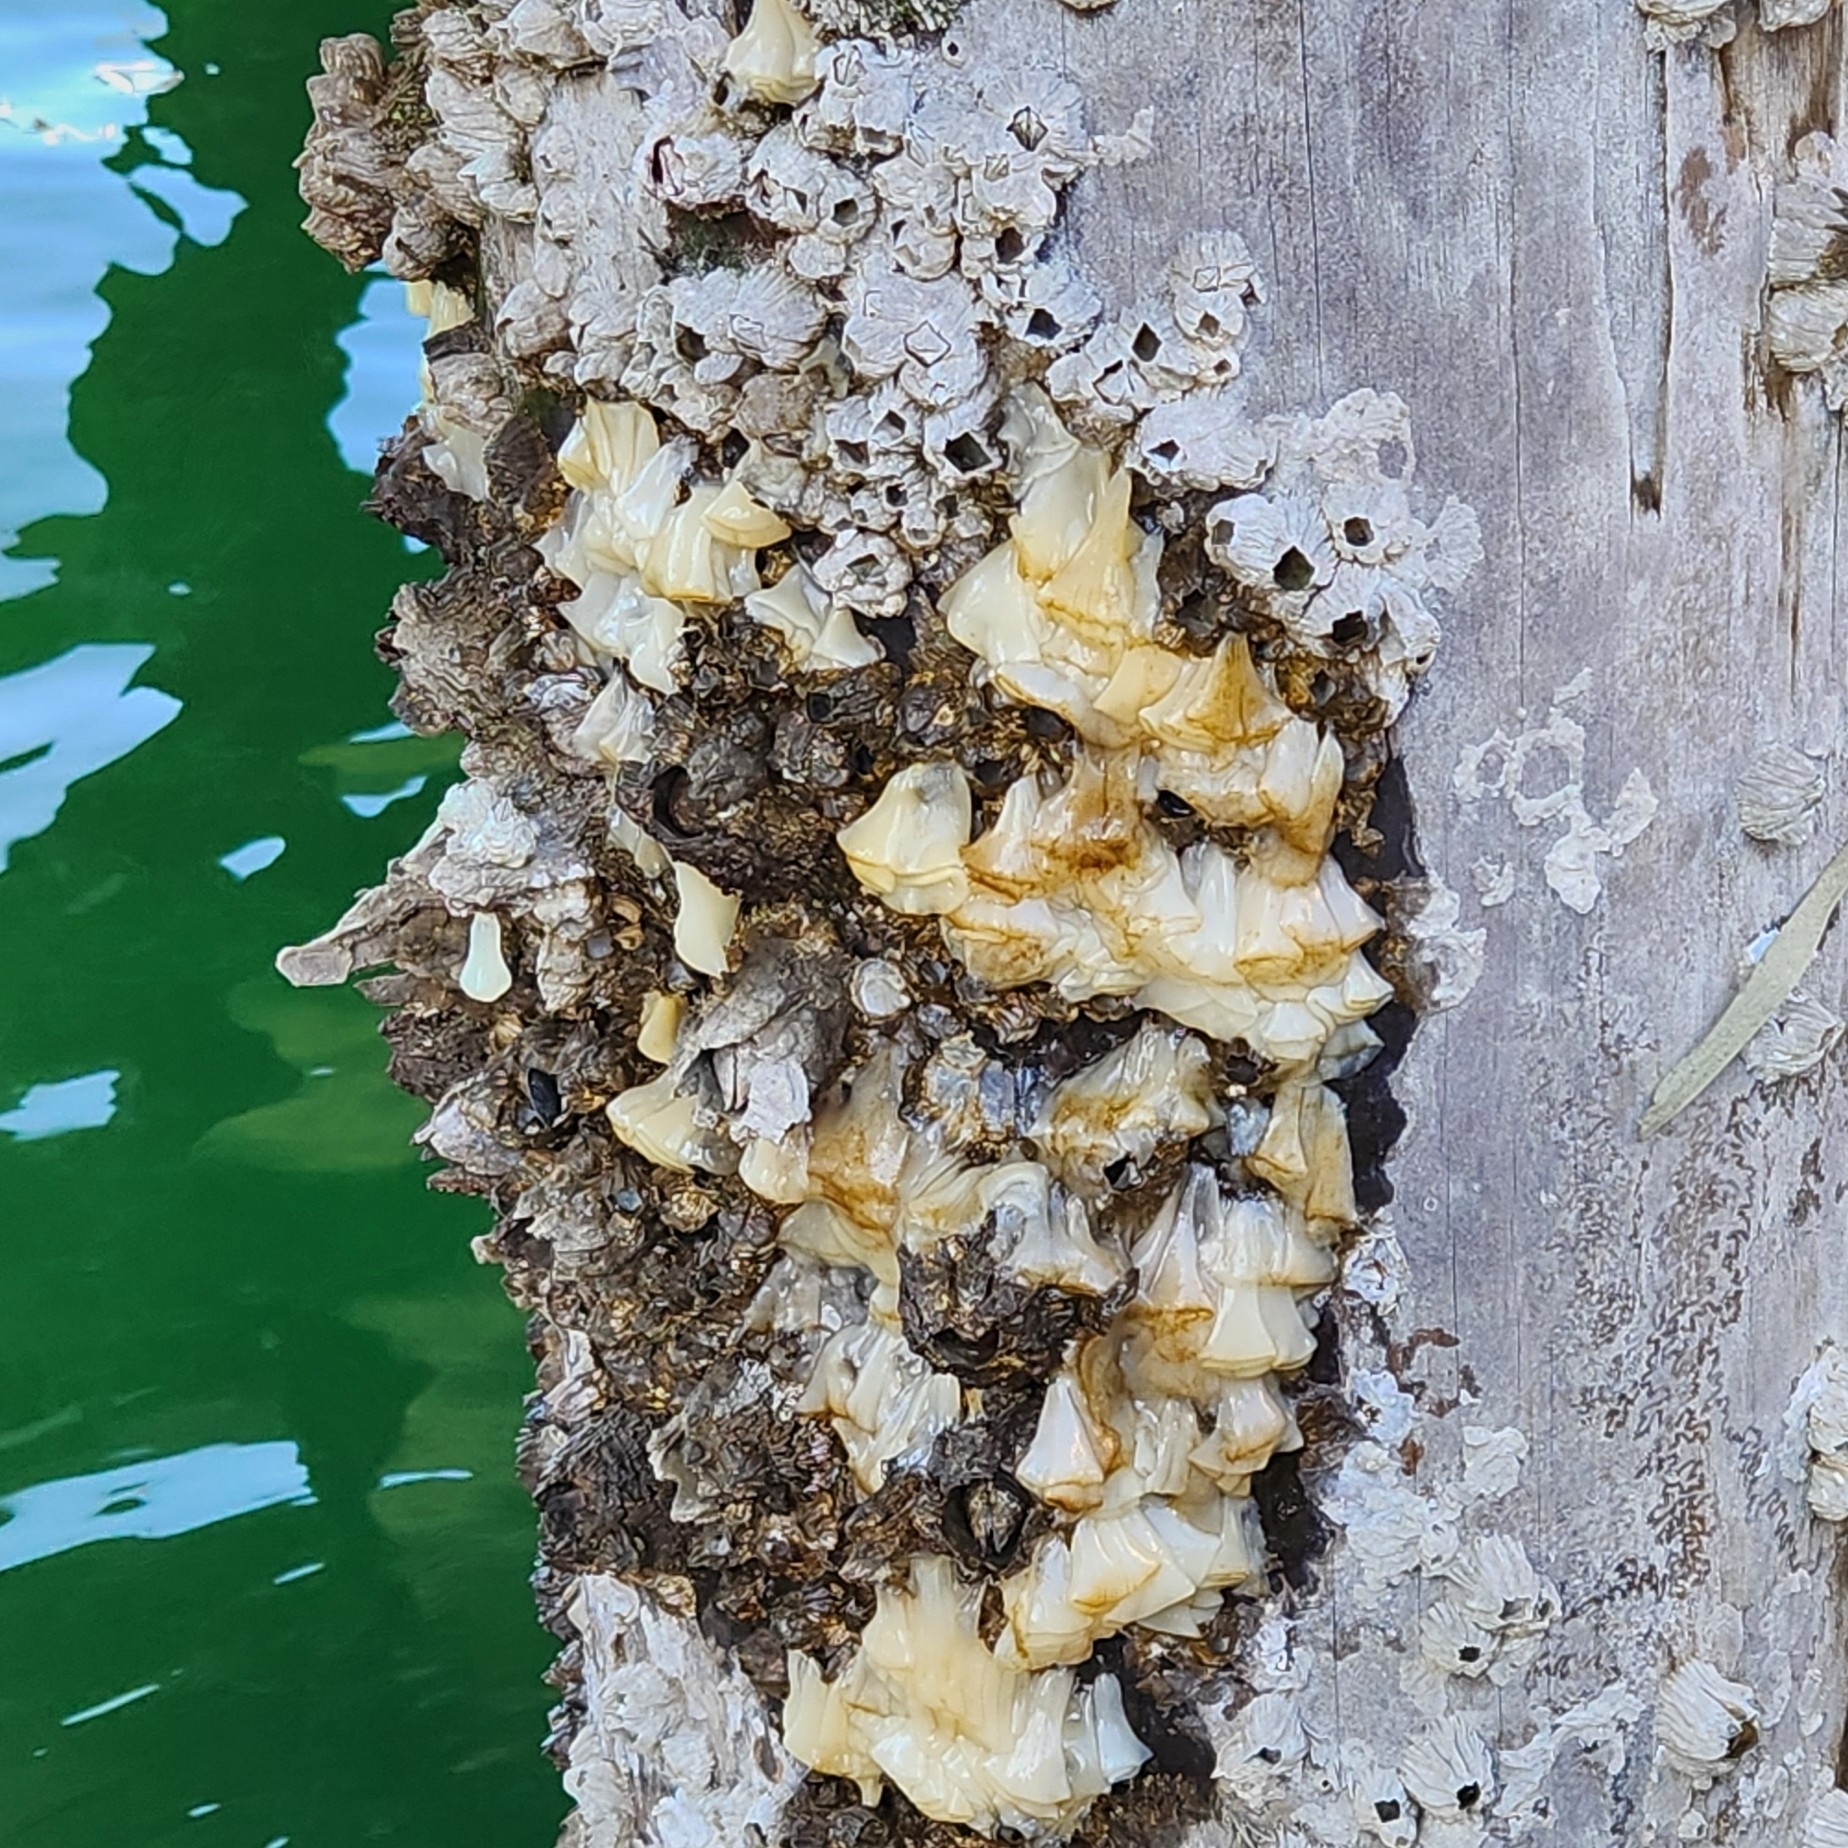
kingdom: Animalia
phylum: Mollusca
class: Gastropoda
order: Nudibranchia
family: Onchidorididae
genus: Onchidoris
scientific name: Onchidoris bilamellata
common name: Barnacle-eating onchidoris
